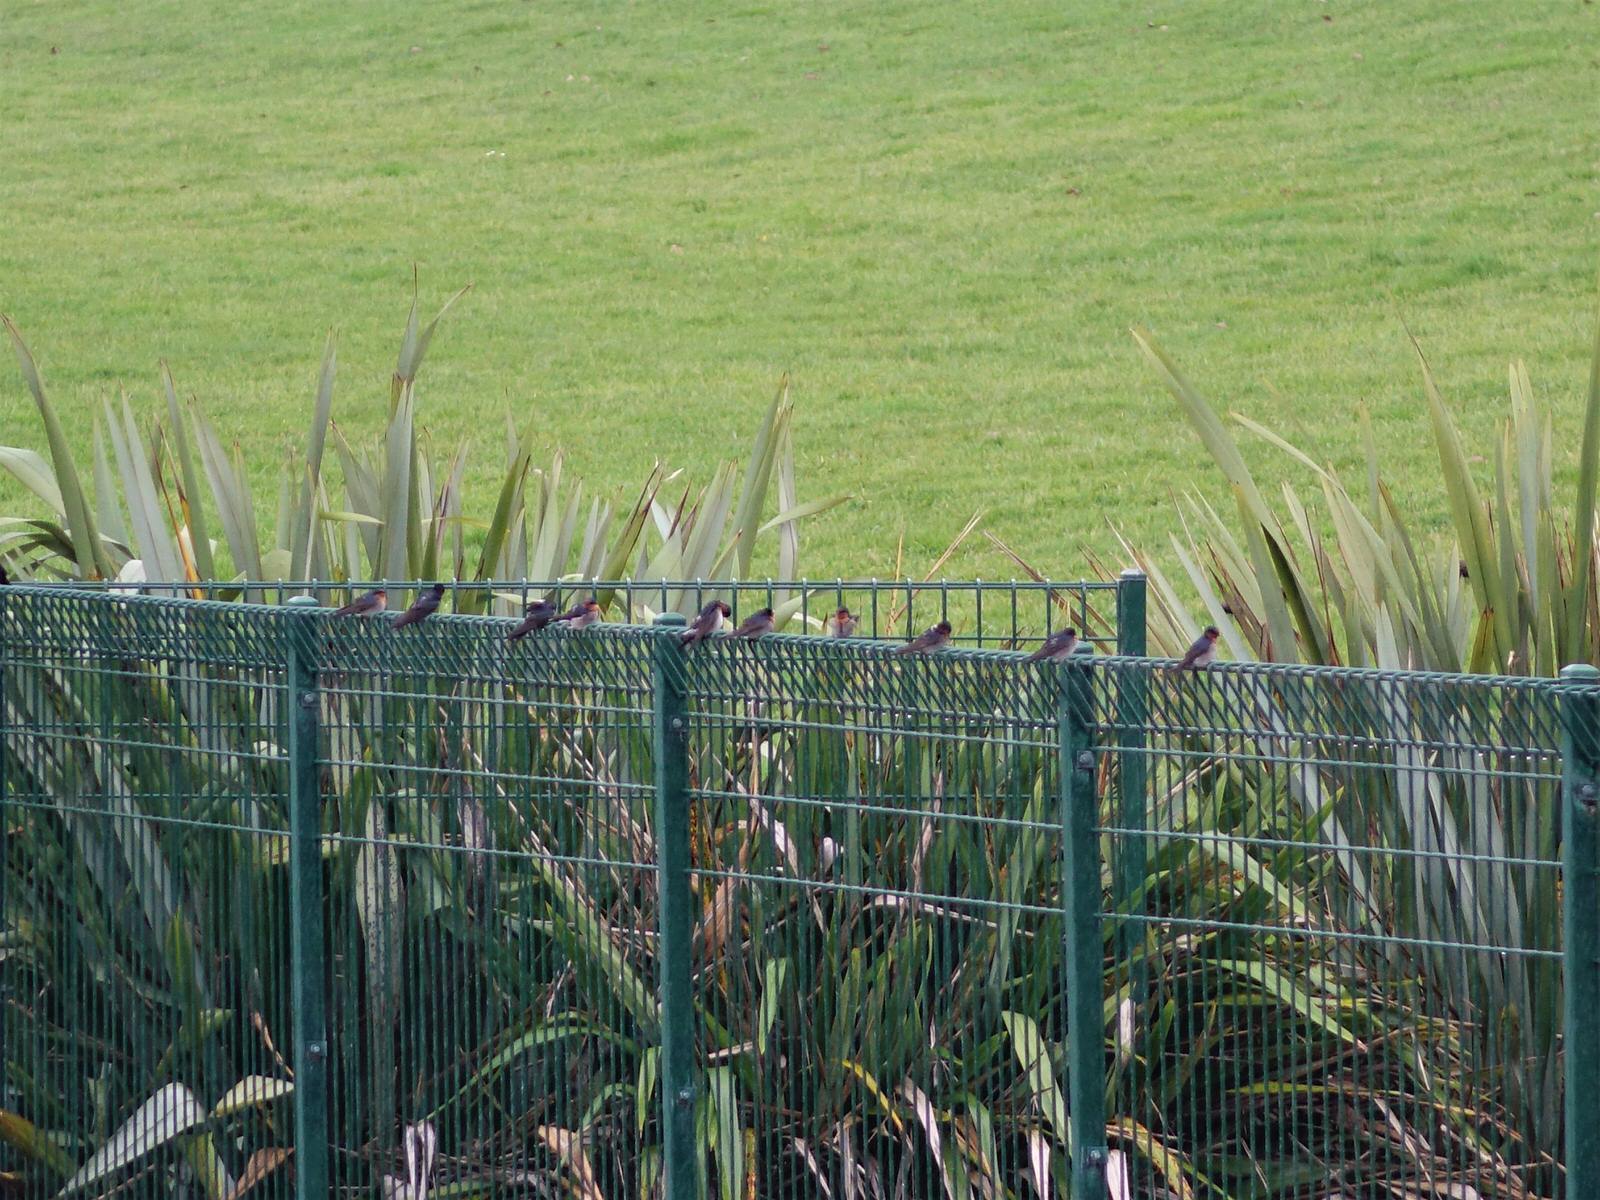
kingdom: Animalia
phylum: Chordata
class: Aves
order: Passeriformes
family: Hirundinidae
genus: Hirundo
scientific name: Hirundo neoxena
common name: Welcome swallow
